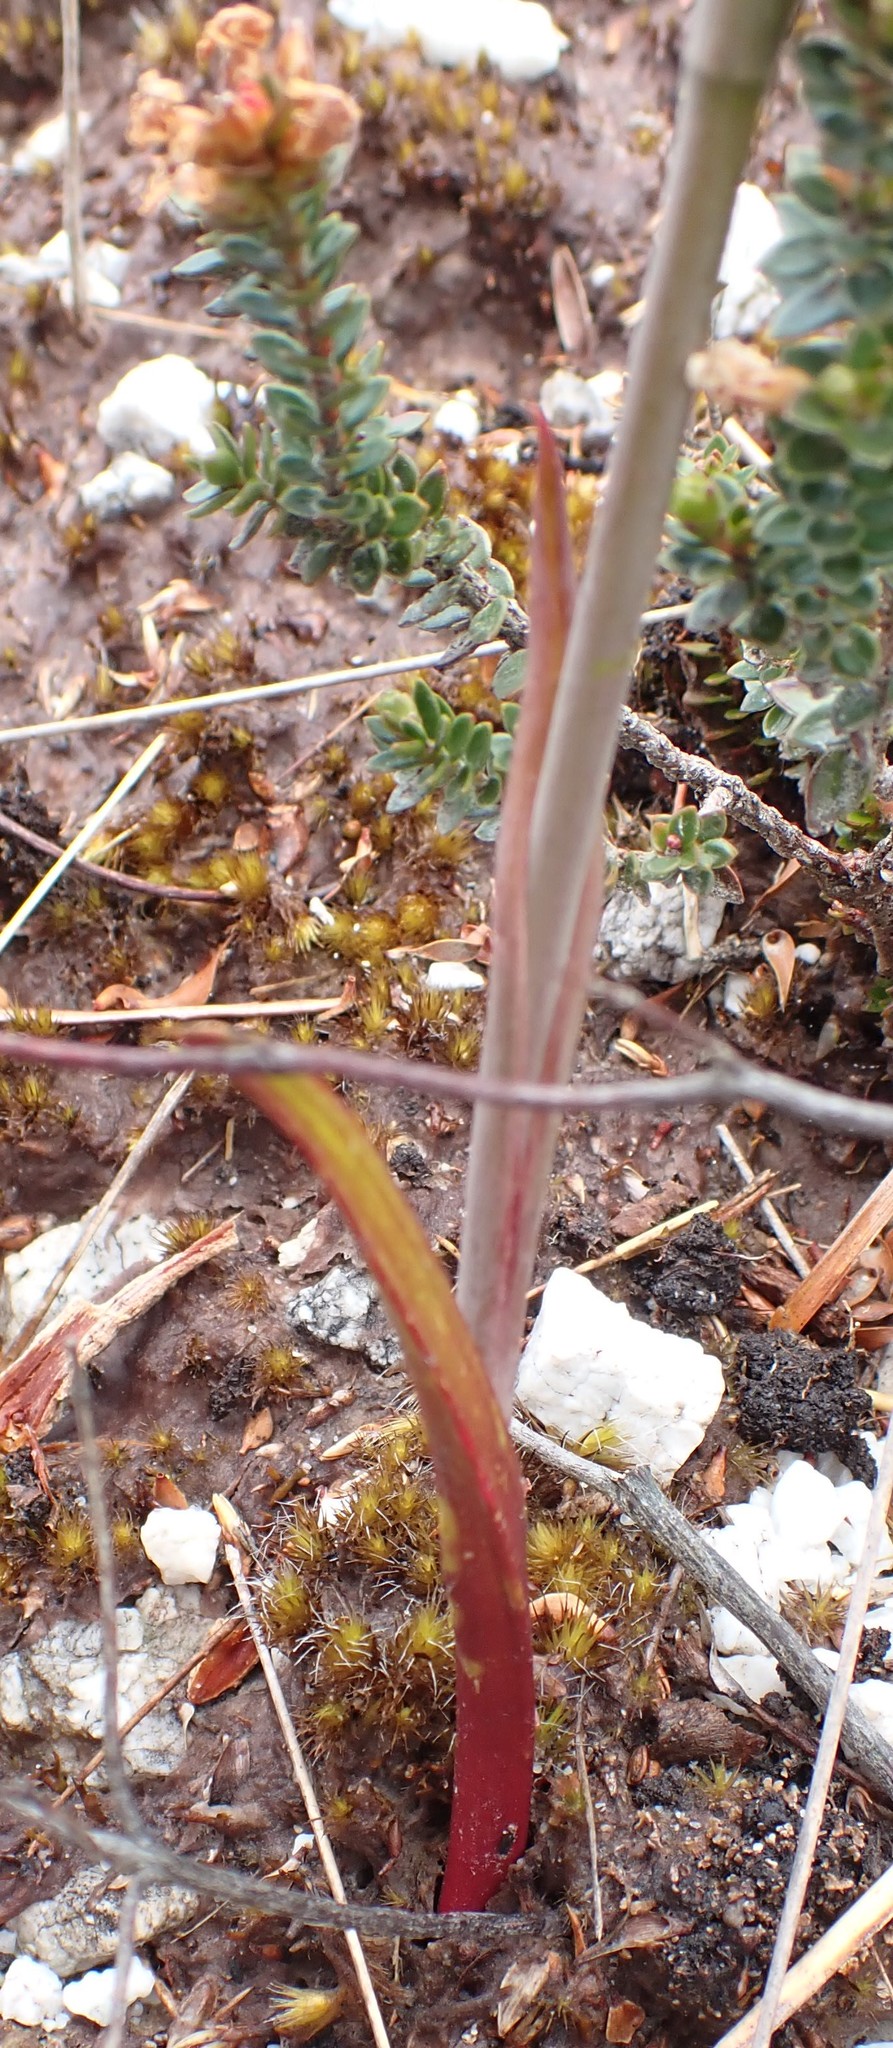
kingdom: Plantae
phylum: Tracheophyta
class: Liliopsida
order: Asparagales
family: Orchidaceae
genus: Calochilus
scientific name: Calochilus herbaceus
